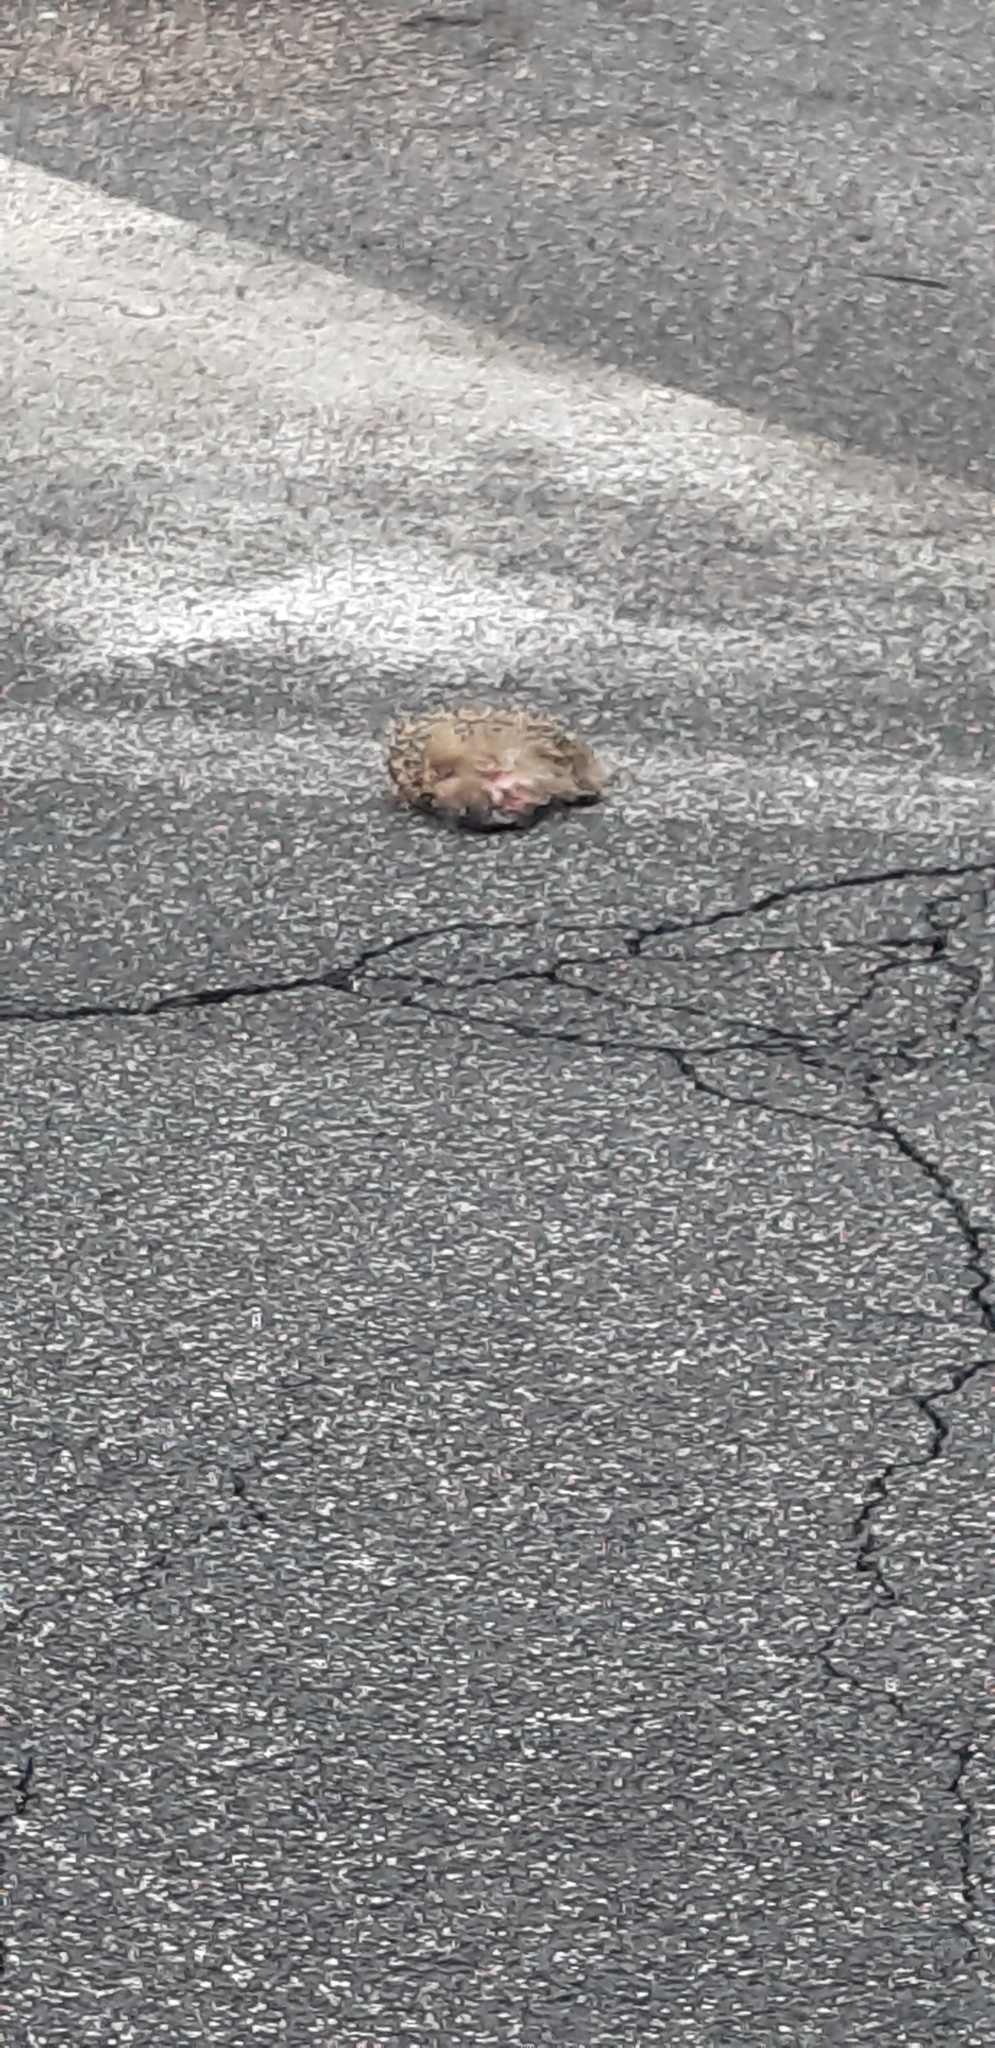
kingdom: Animalia
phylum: Chordata
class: Mammalia
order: Erinaceomorpha
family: Erinaceidae
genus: Erinaceus
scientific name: Erinaceus europaeus
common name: West european hedgehog
